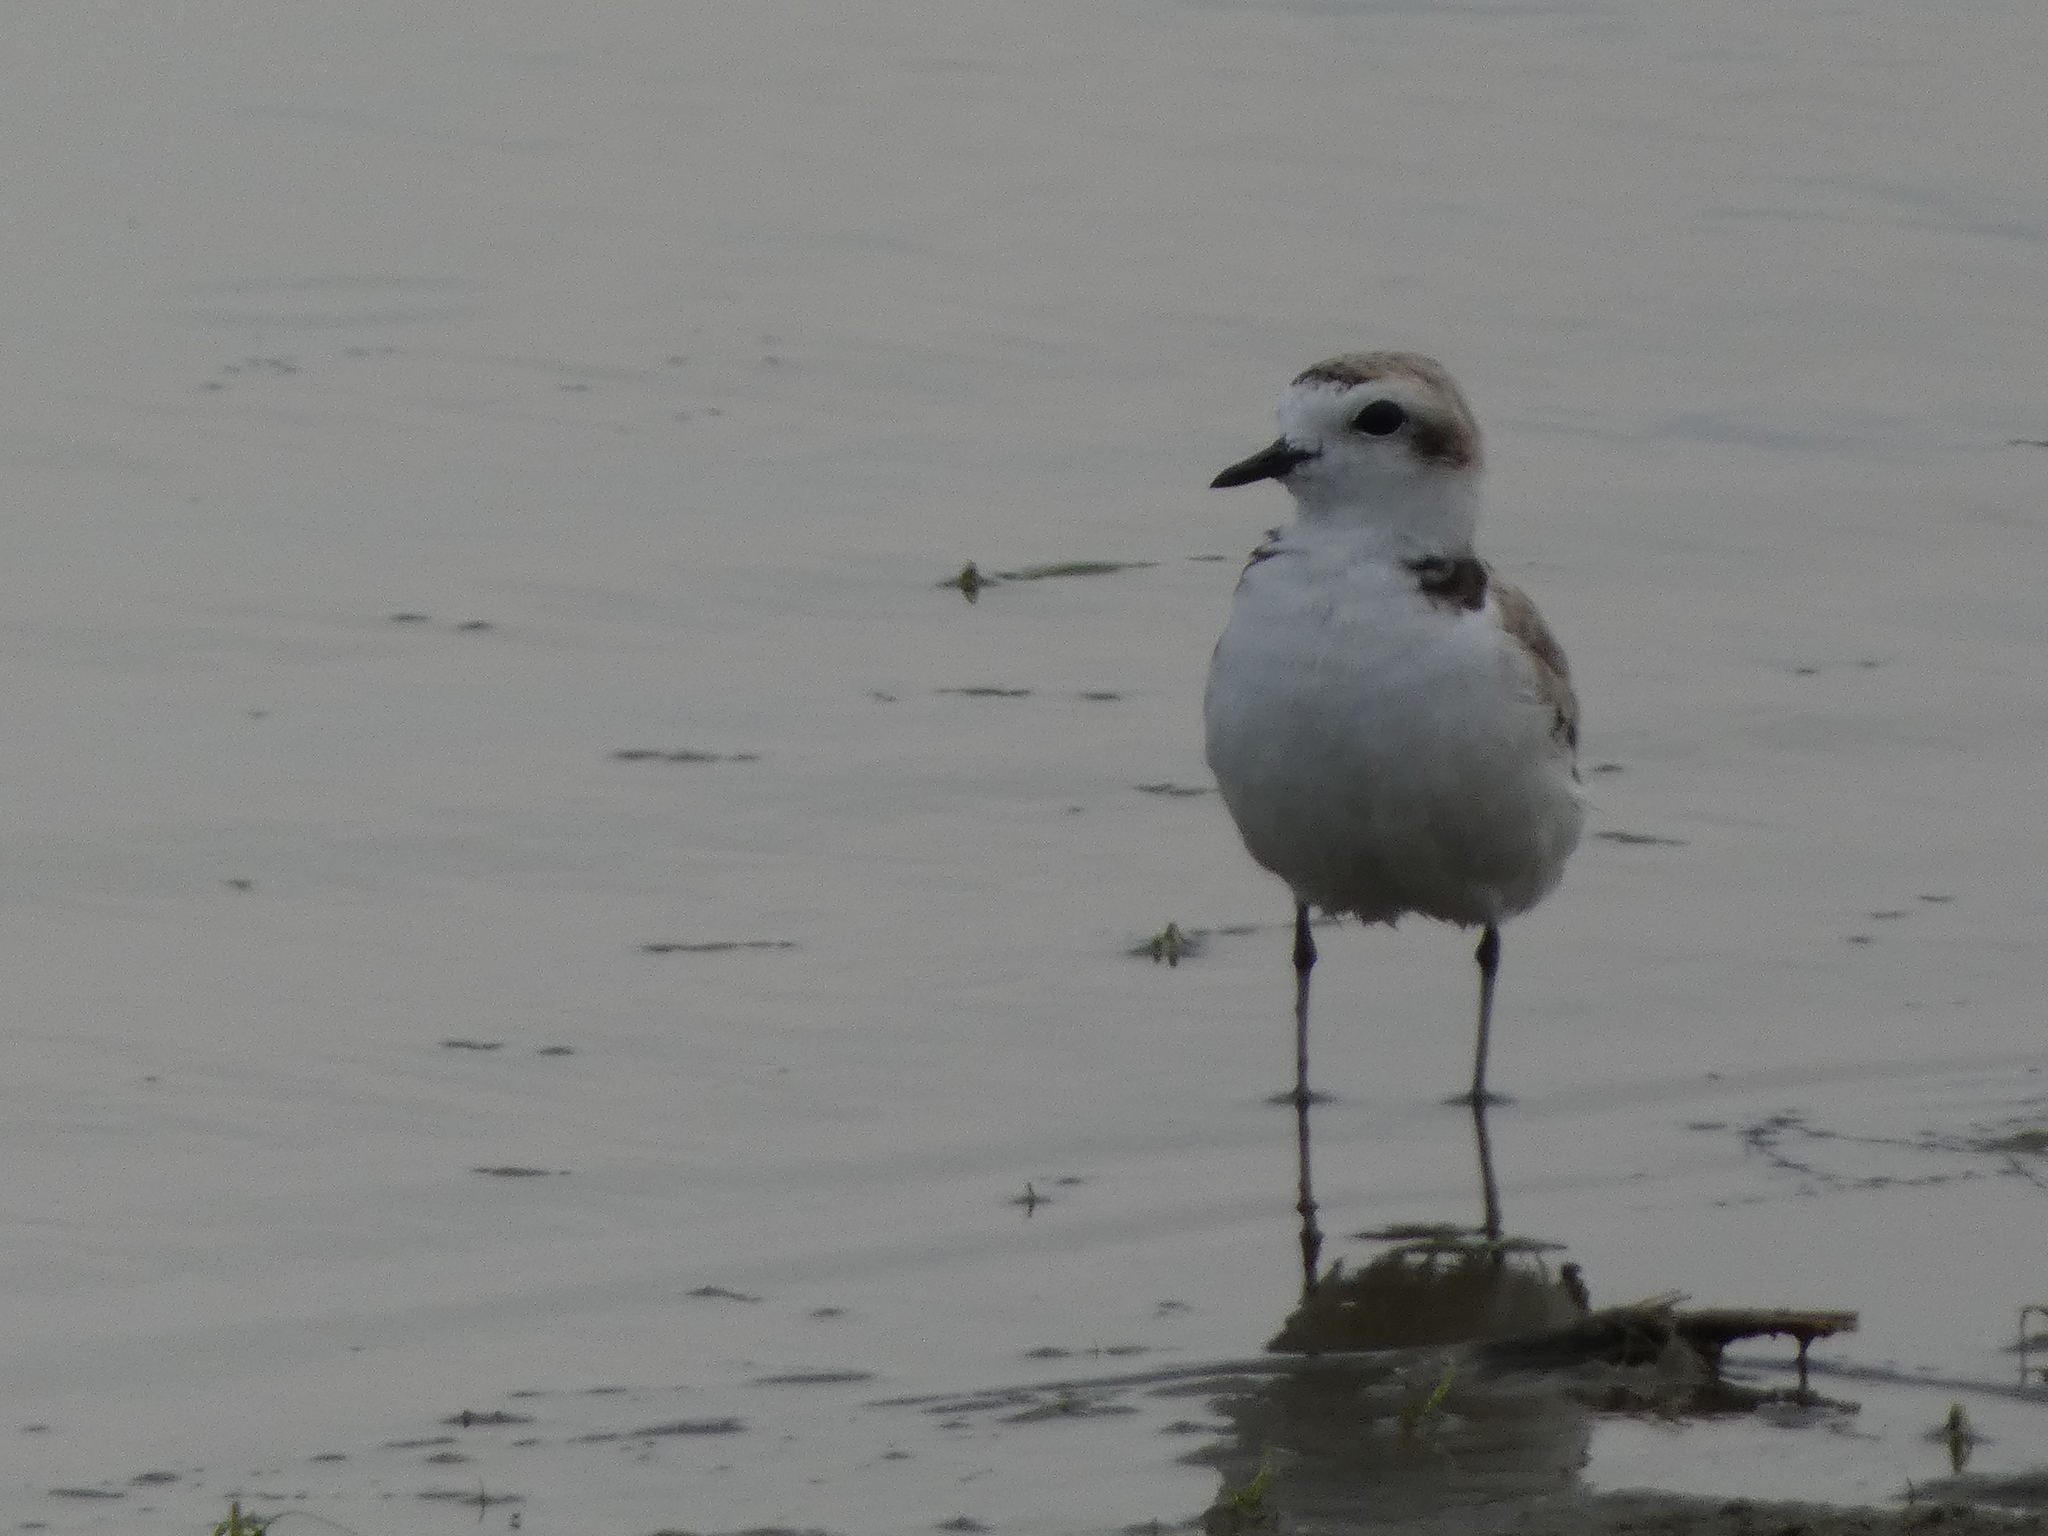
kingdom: Animalia
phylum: Chordata
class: Aves
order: Charadriiformes
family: Charadriidae
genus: Anarhynchus
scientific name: Anarhynchus
